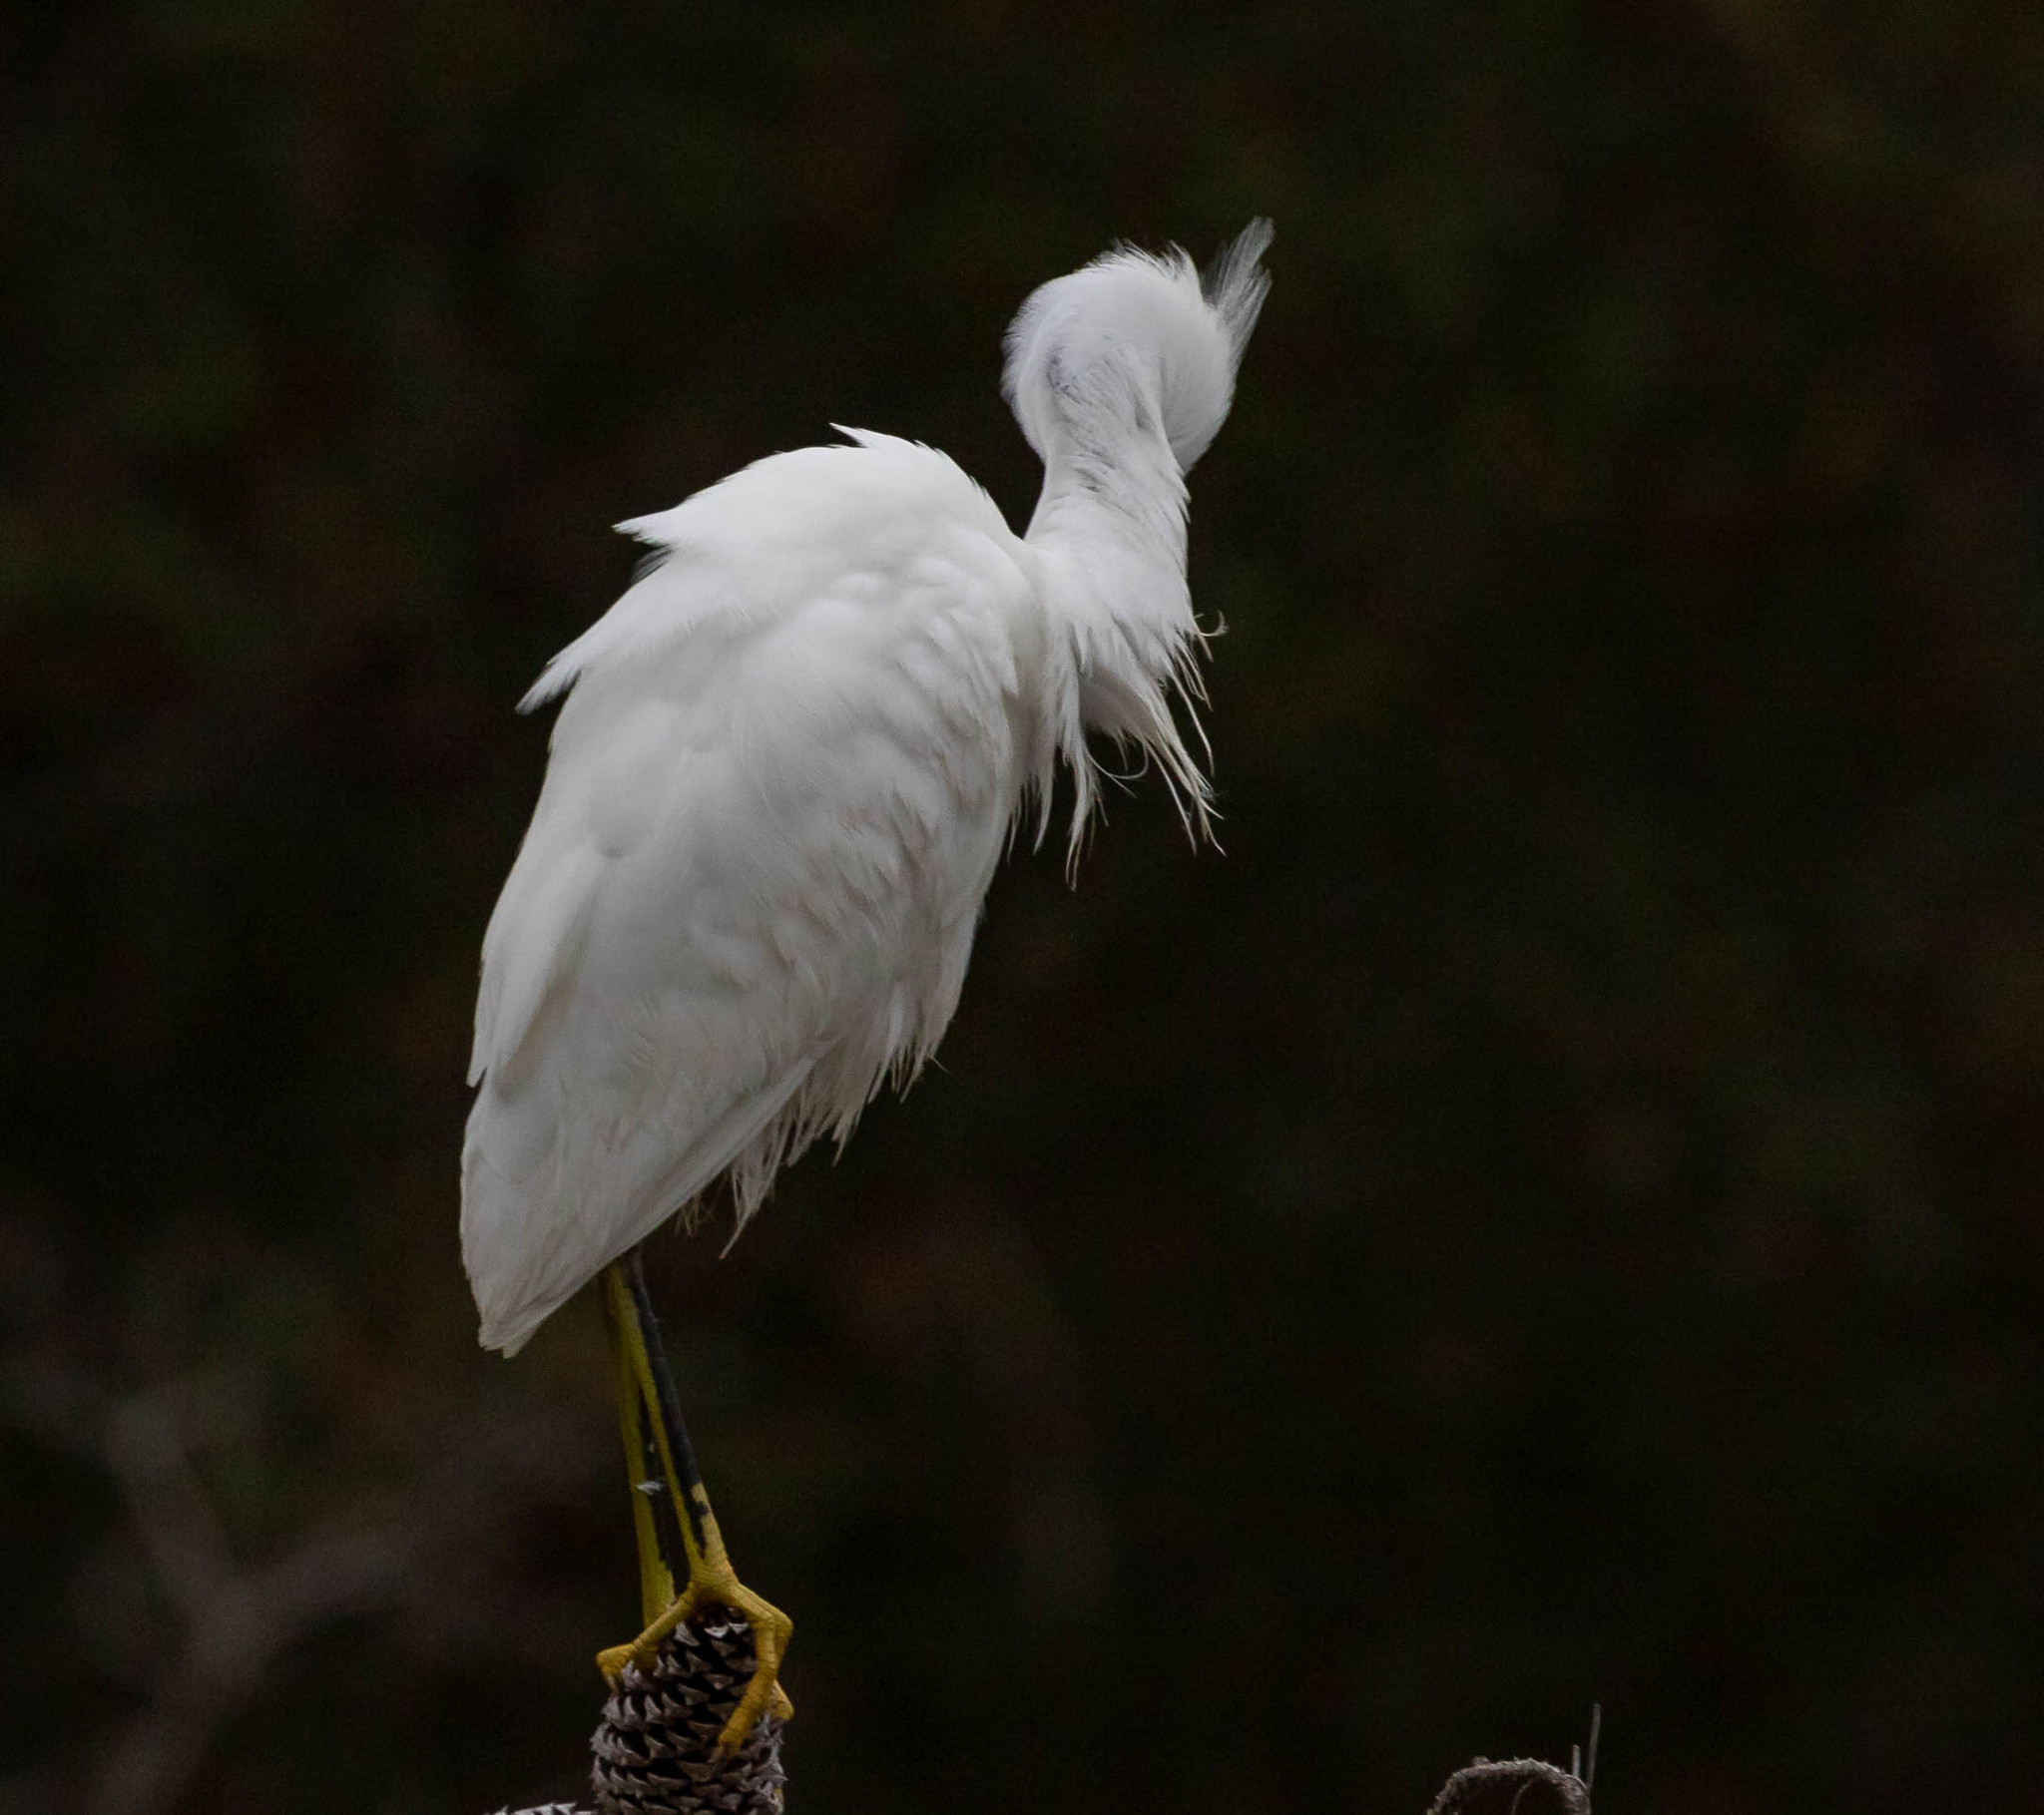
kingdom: Animalia
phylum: Chordata
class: Aves
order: Pelecaniformes
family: Ardeidae
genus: Egretta
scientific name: Egretta thula
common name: Snowy egret
